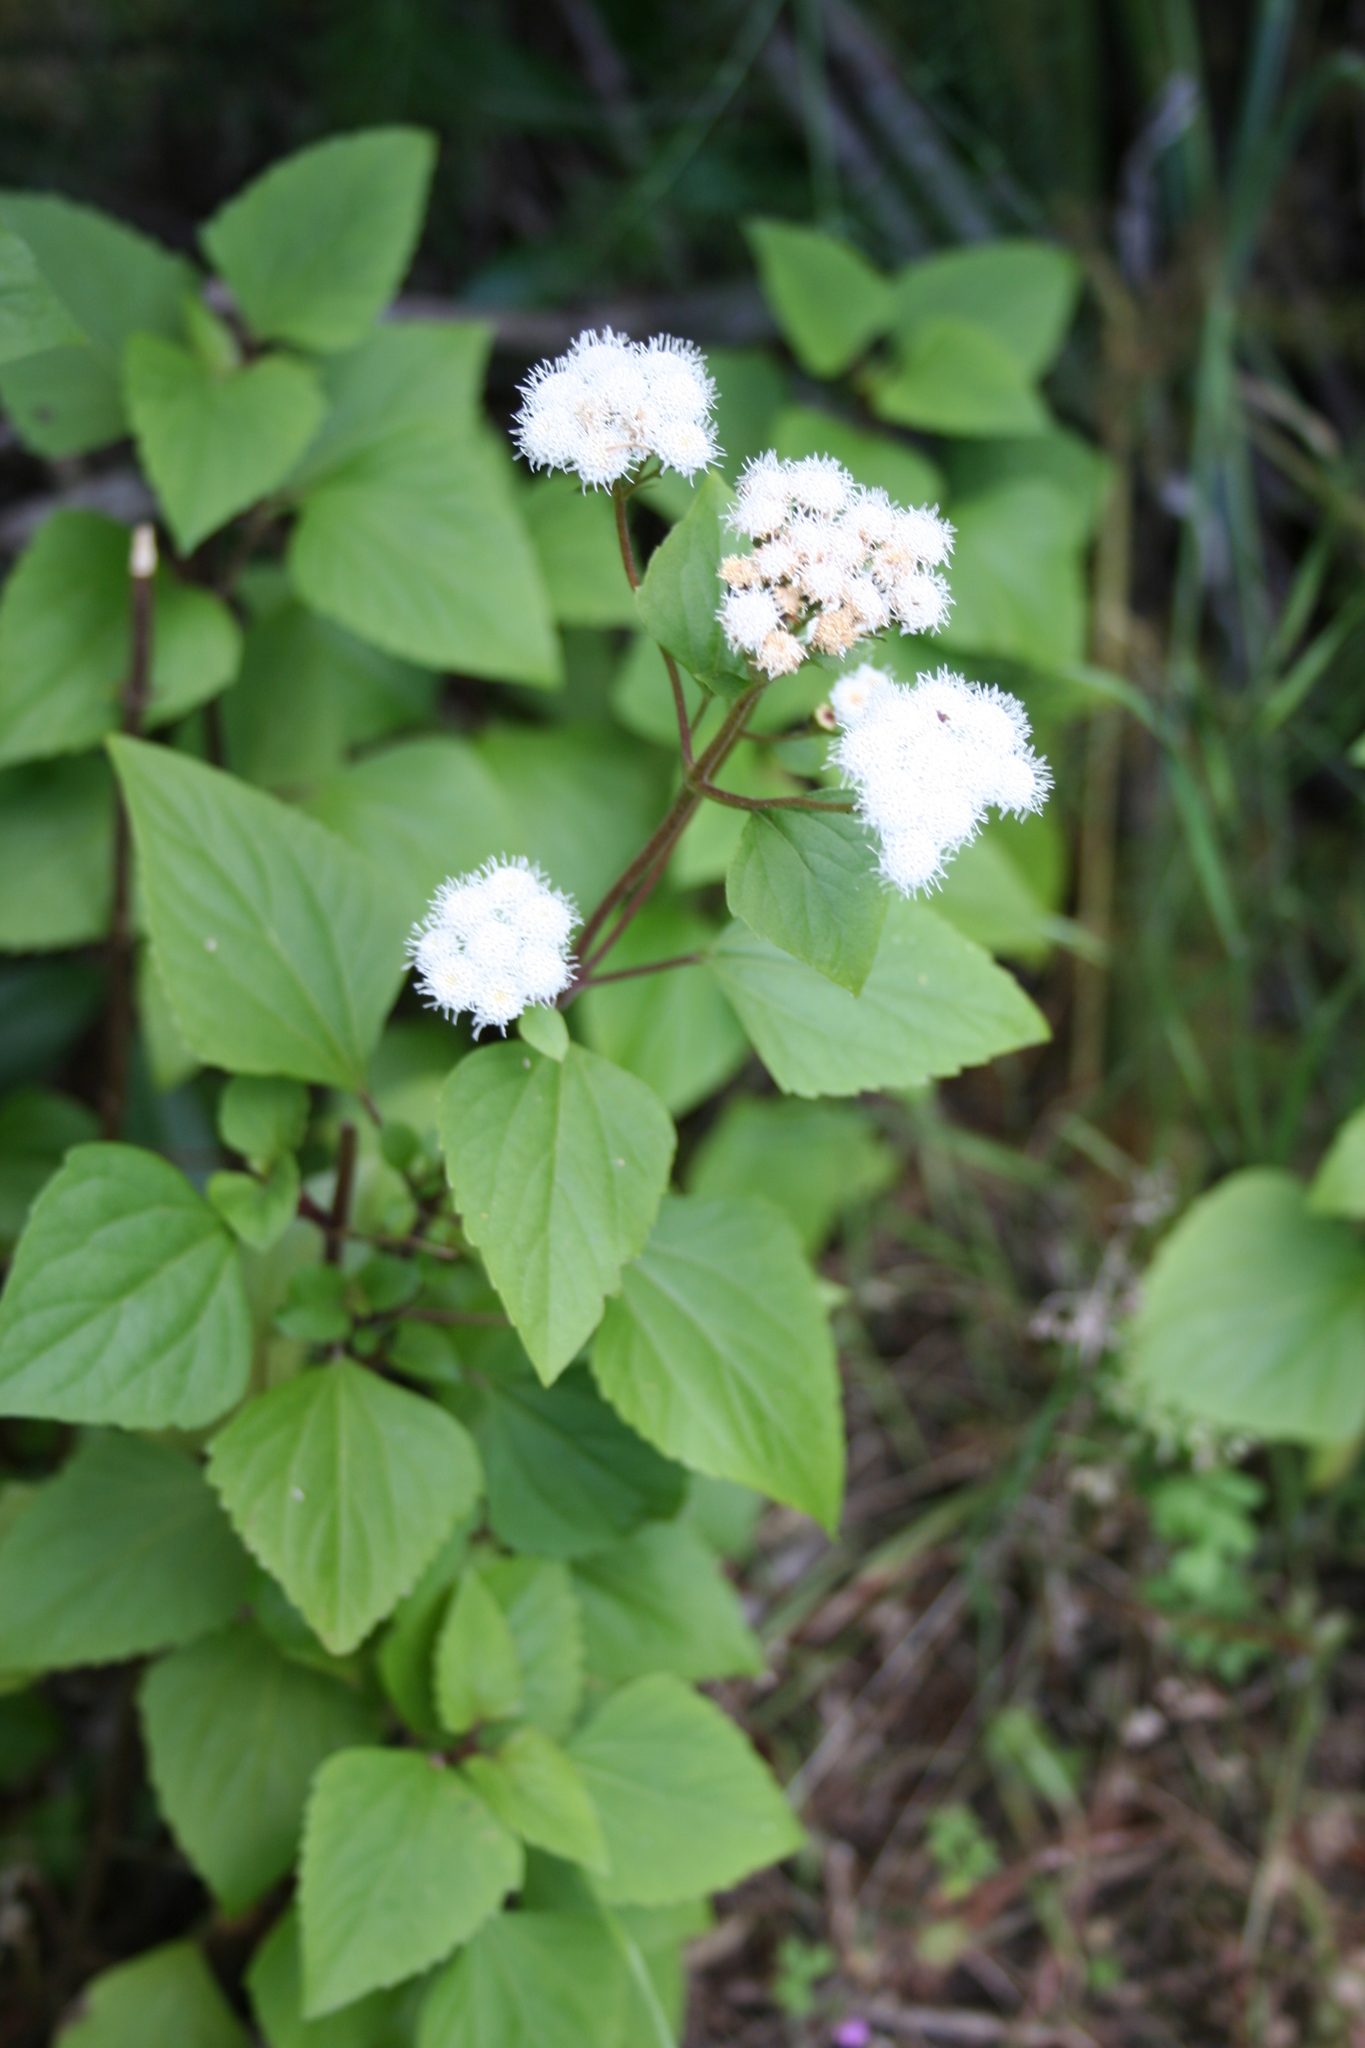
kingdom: Plantae
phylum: Tracheophyta
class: Magnoliopsida
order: Asterales
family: Asteraceae
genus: Ageratina
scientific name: Ageratina adenophora
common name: Sticky snakeroot
